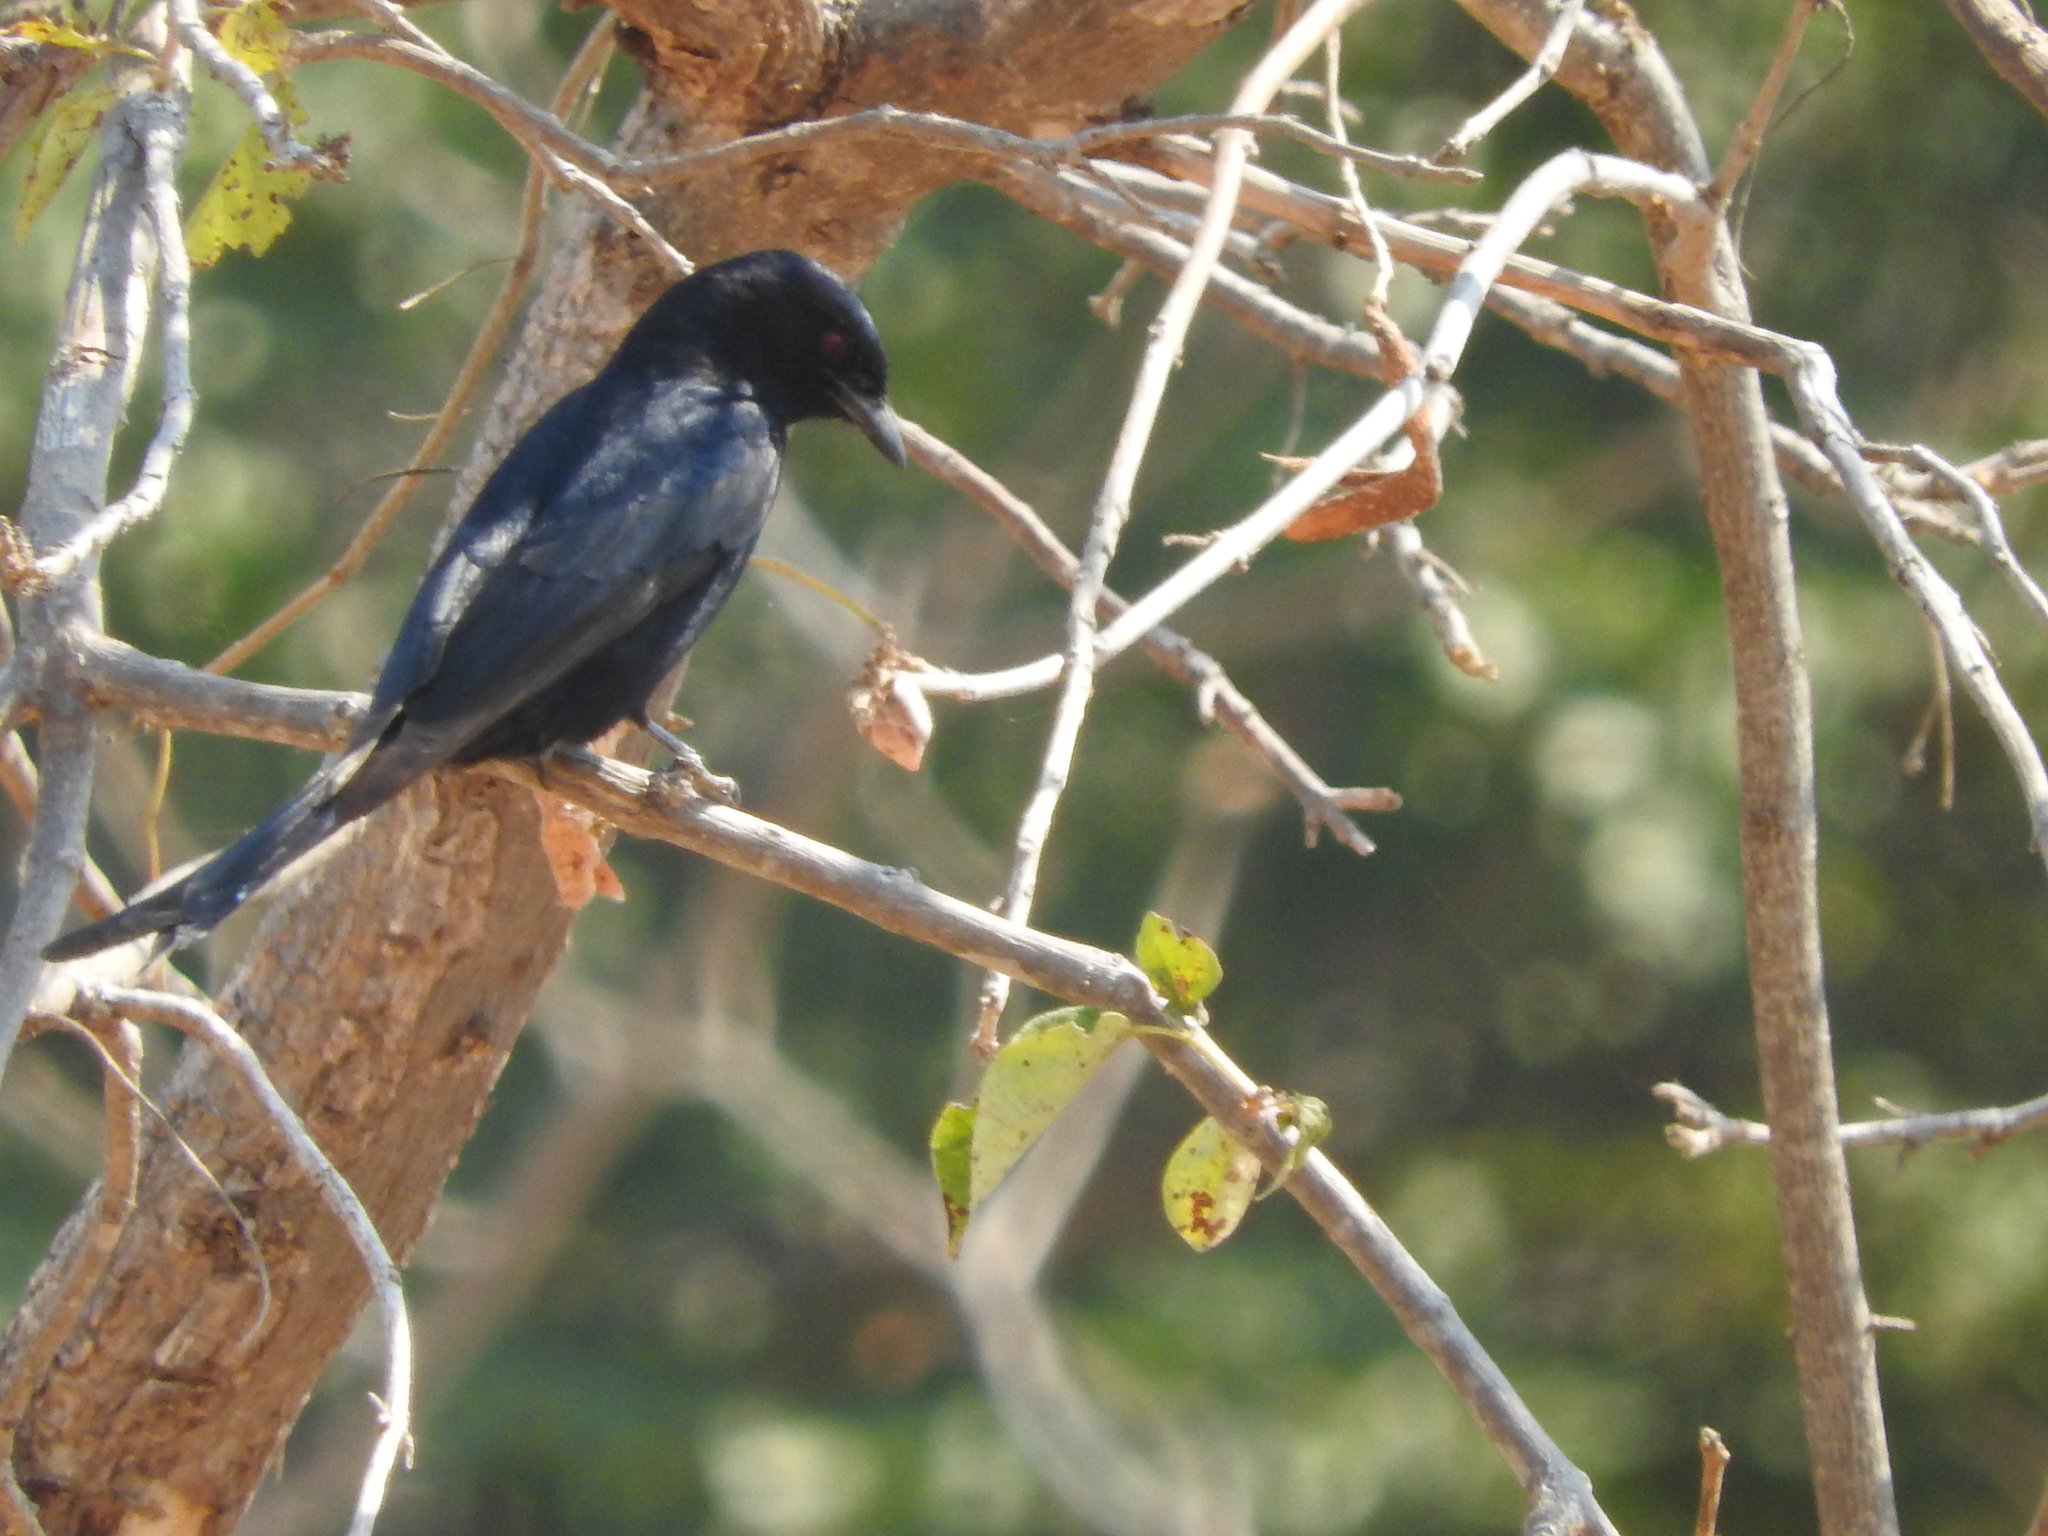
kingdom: Animalia
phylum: Chordata
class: Aves
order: Passeriformes
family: Dicruridae
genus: Dicrurus
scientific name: Dicrurus adsimilis
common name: Fork-tailed drongo
